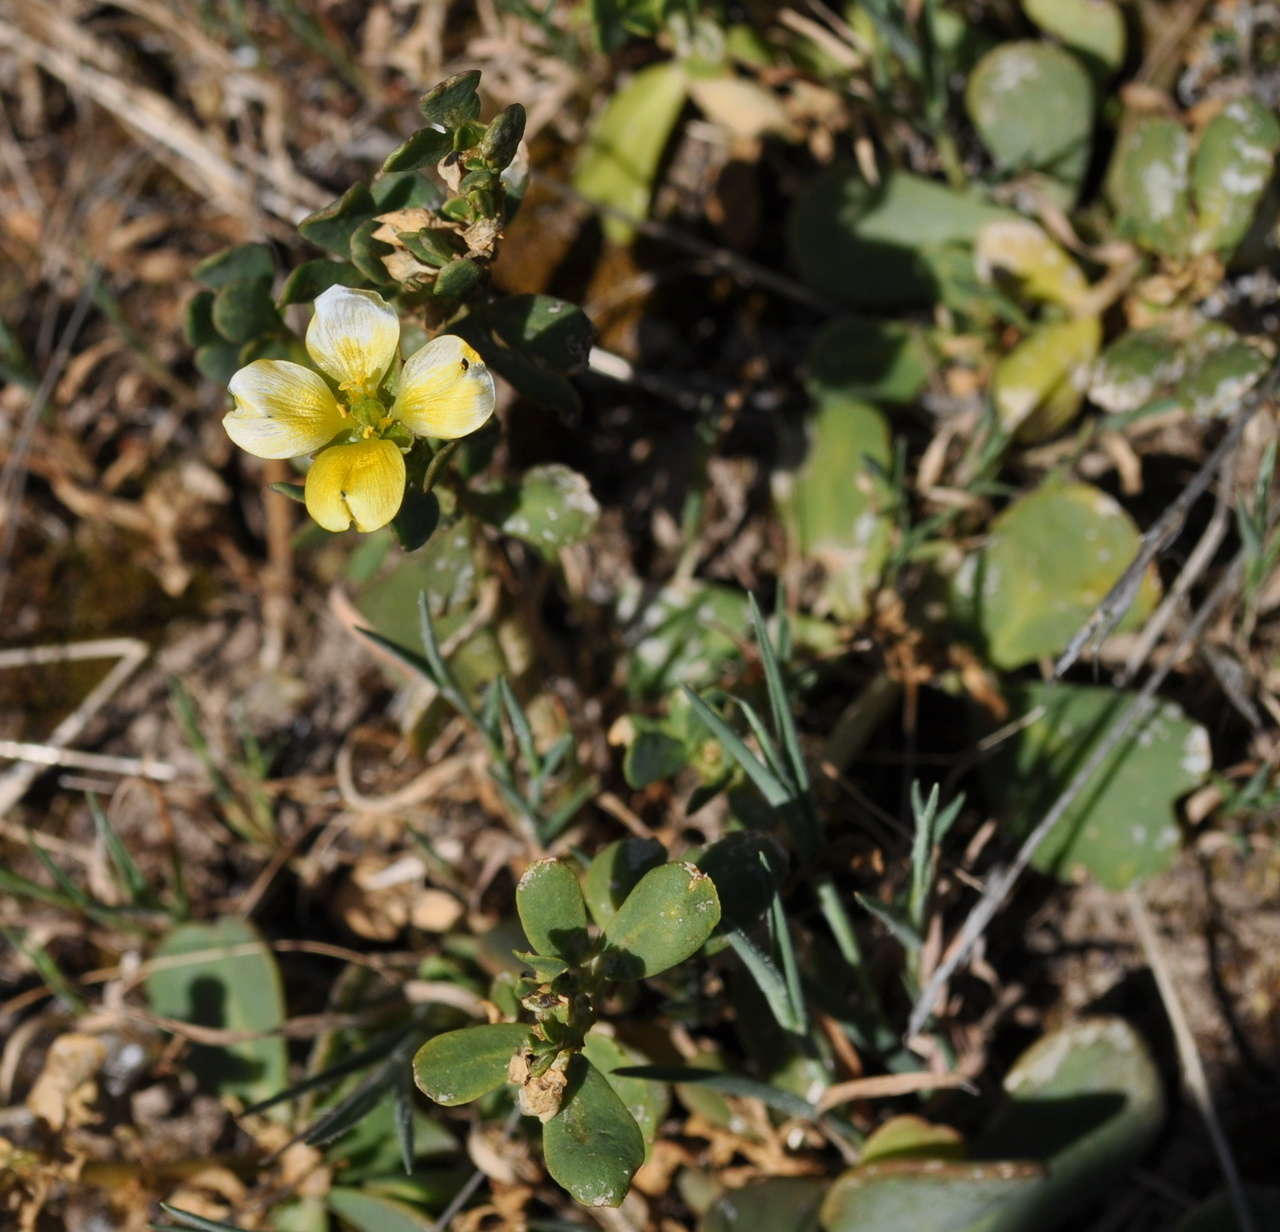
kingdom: Plantae
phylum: Tracheophyta
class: Magnoliopsida
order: Zygophyllales
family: Zygophyllaceae
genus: Roepera
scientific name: Roepera glauca
